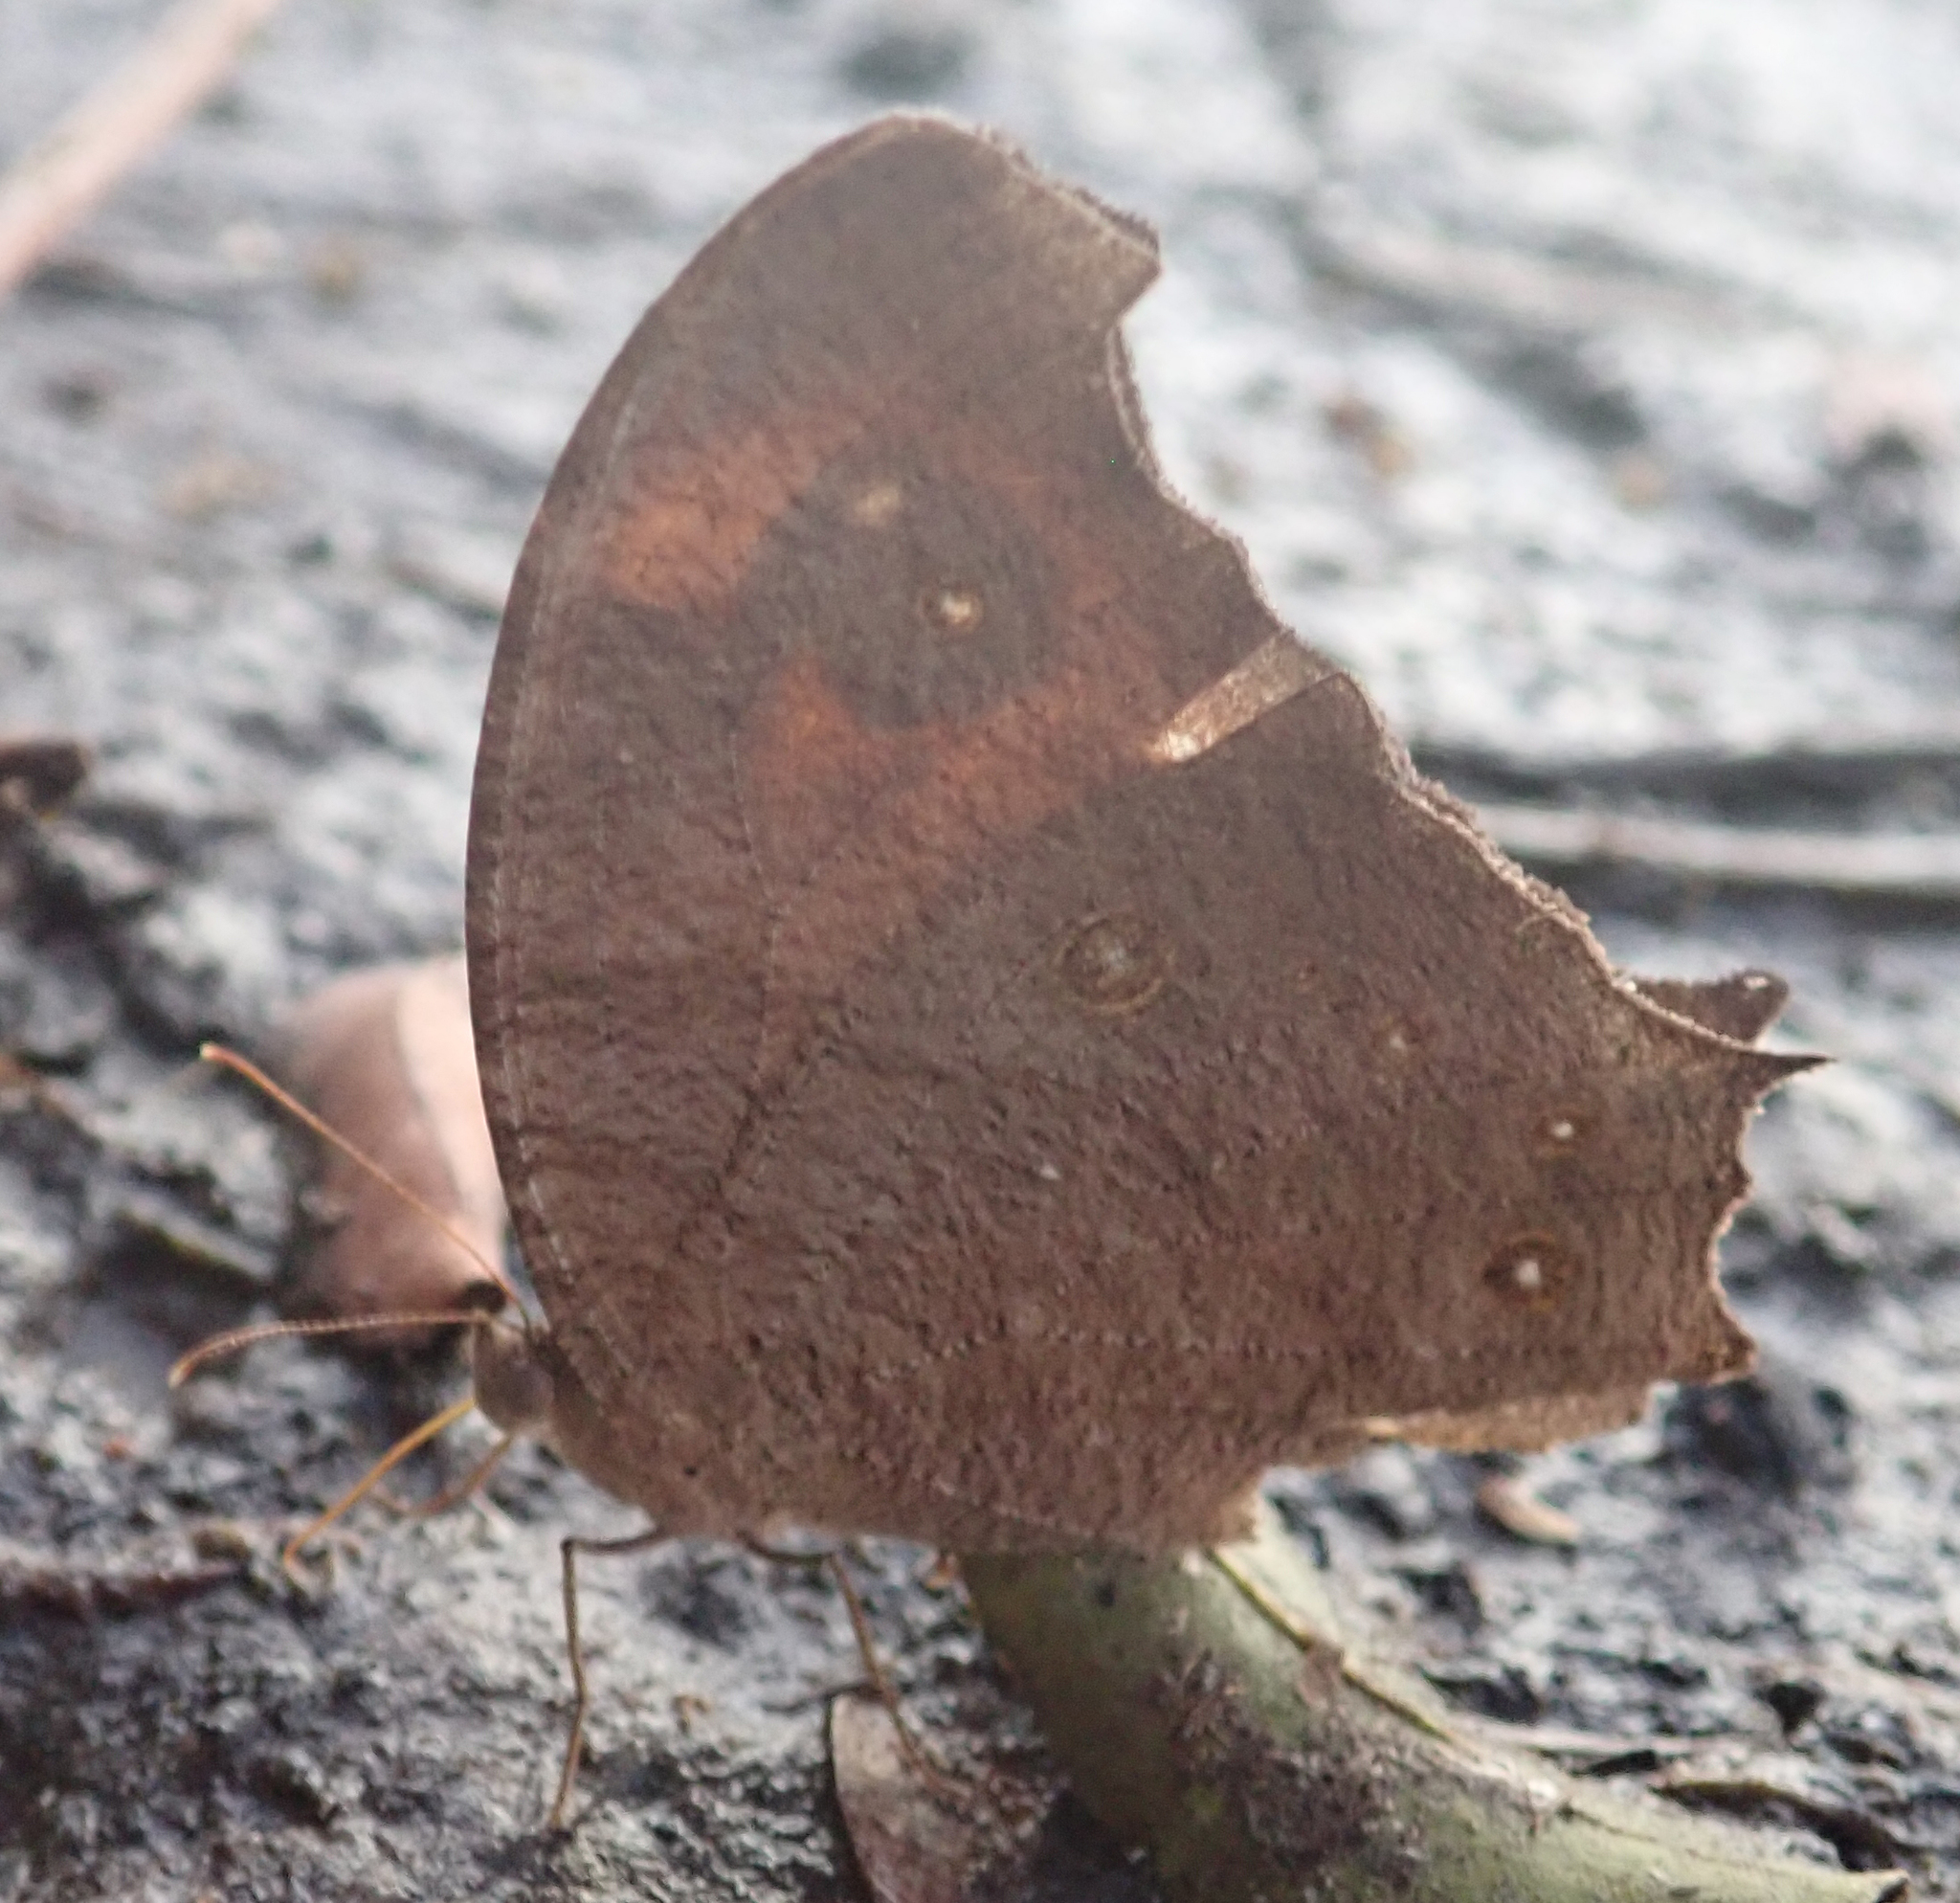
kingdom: Animalia
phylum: Arthropoda
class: Insecta
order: Lepidoptera
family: Nymphalidae
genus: Melanitis
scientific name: Melanitis leda
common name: Twilight brown
